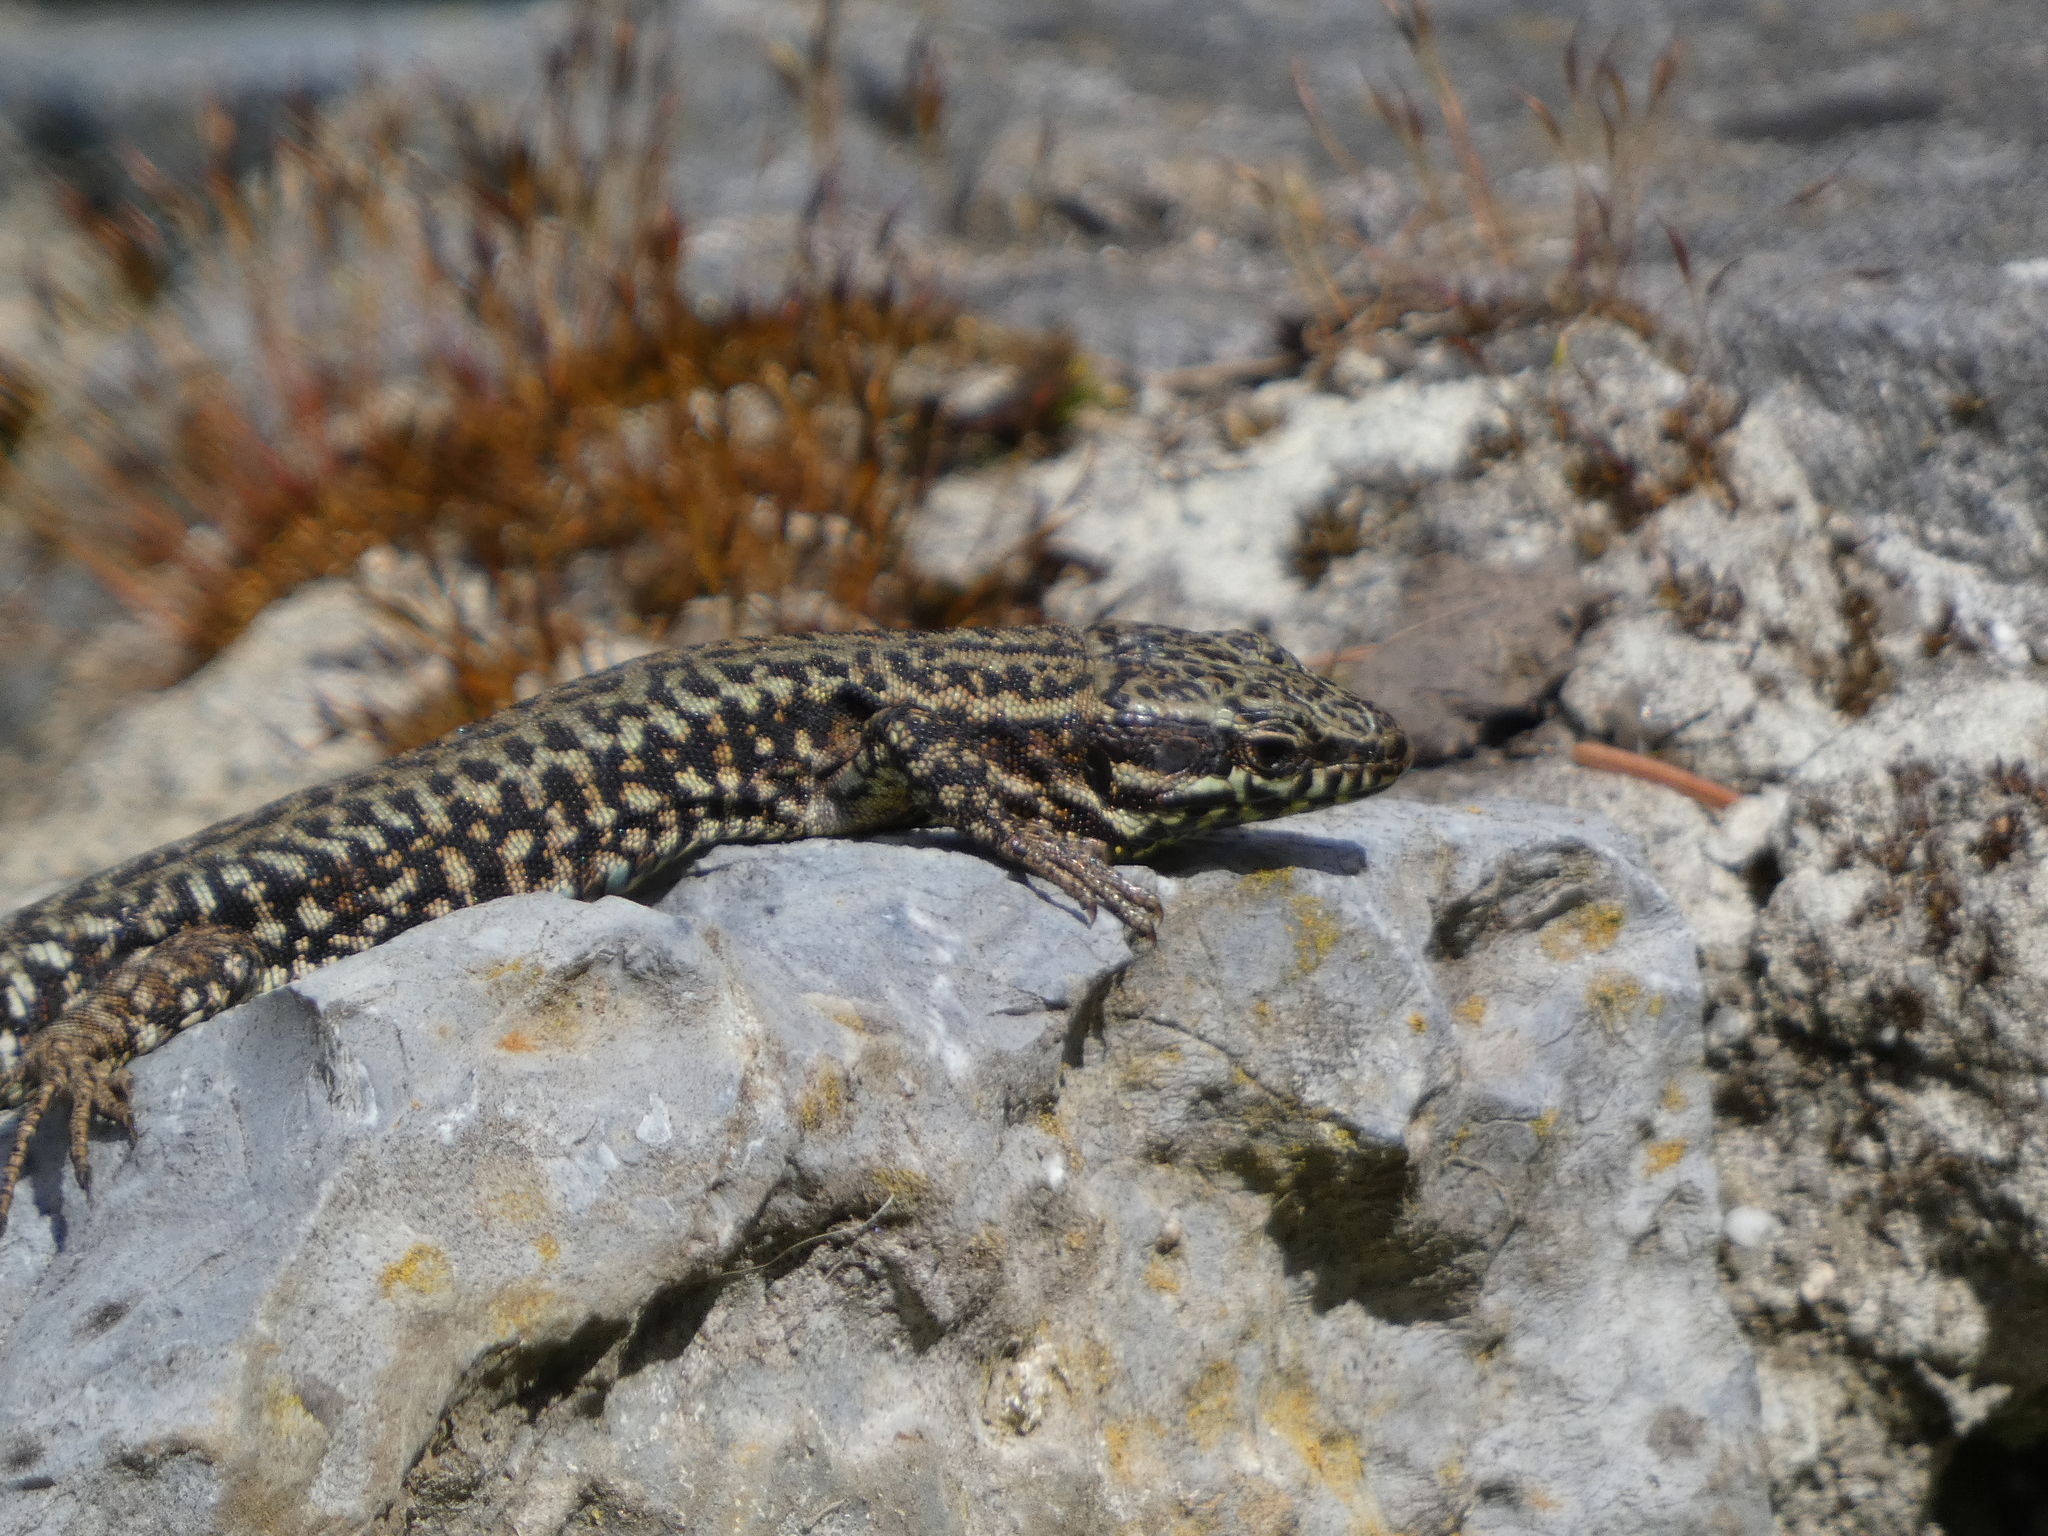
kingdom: Animalia
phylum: Chordata
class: Squamata
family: Lacertidae
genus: Podarcis
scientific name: Podarcis muralis
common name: Common wall lizard
